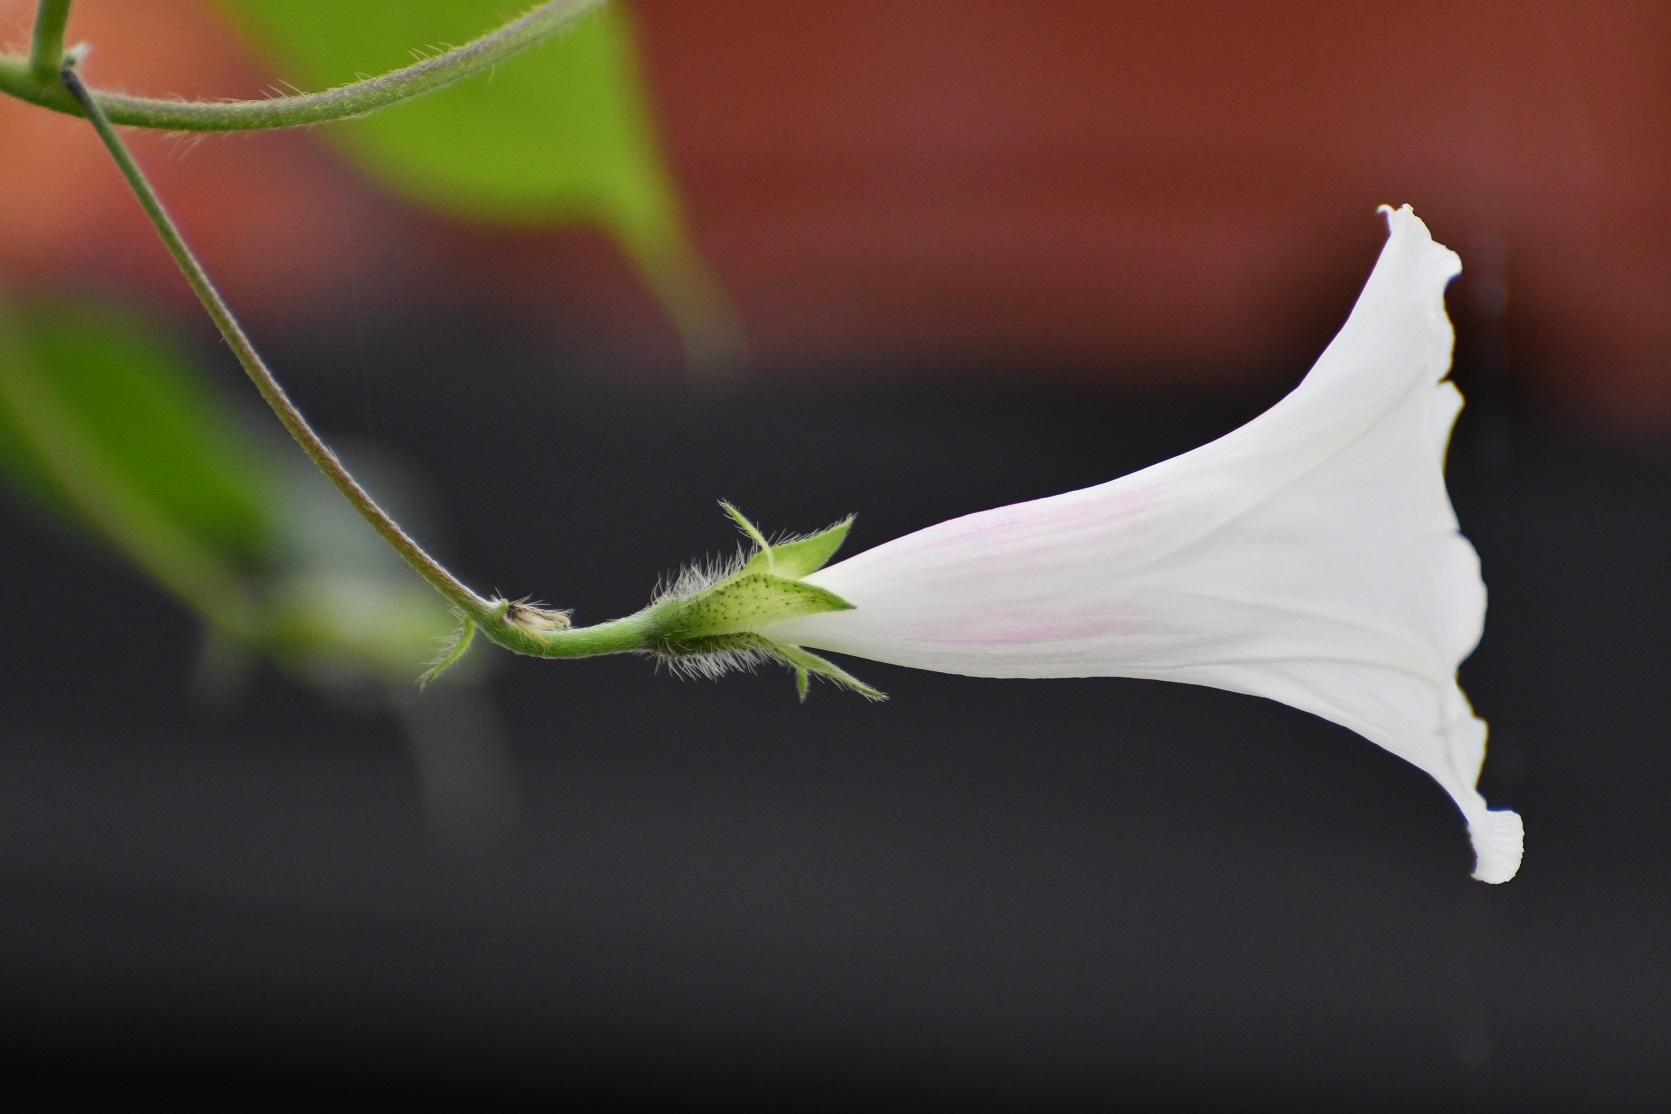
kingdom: Plantae
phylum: Tracheophyta
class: Magnoliopsida
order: Solanales
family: Convolvulaceae
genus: Ipomoea
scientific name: Ipomoea purpurea
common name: Common morning-glory
